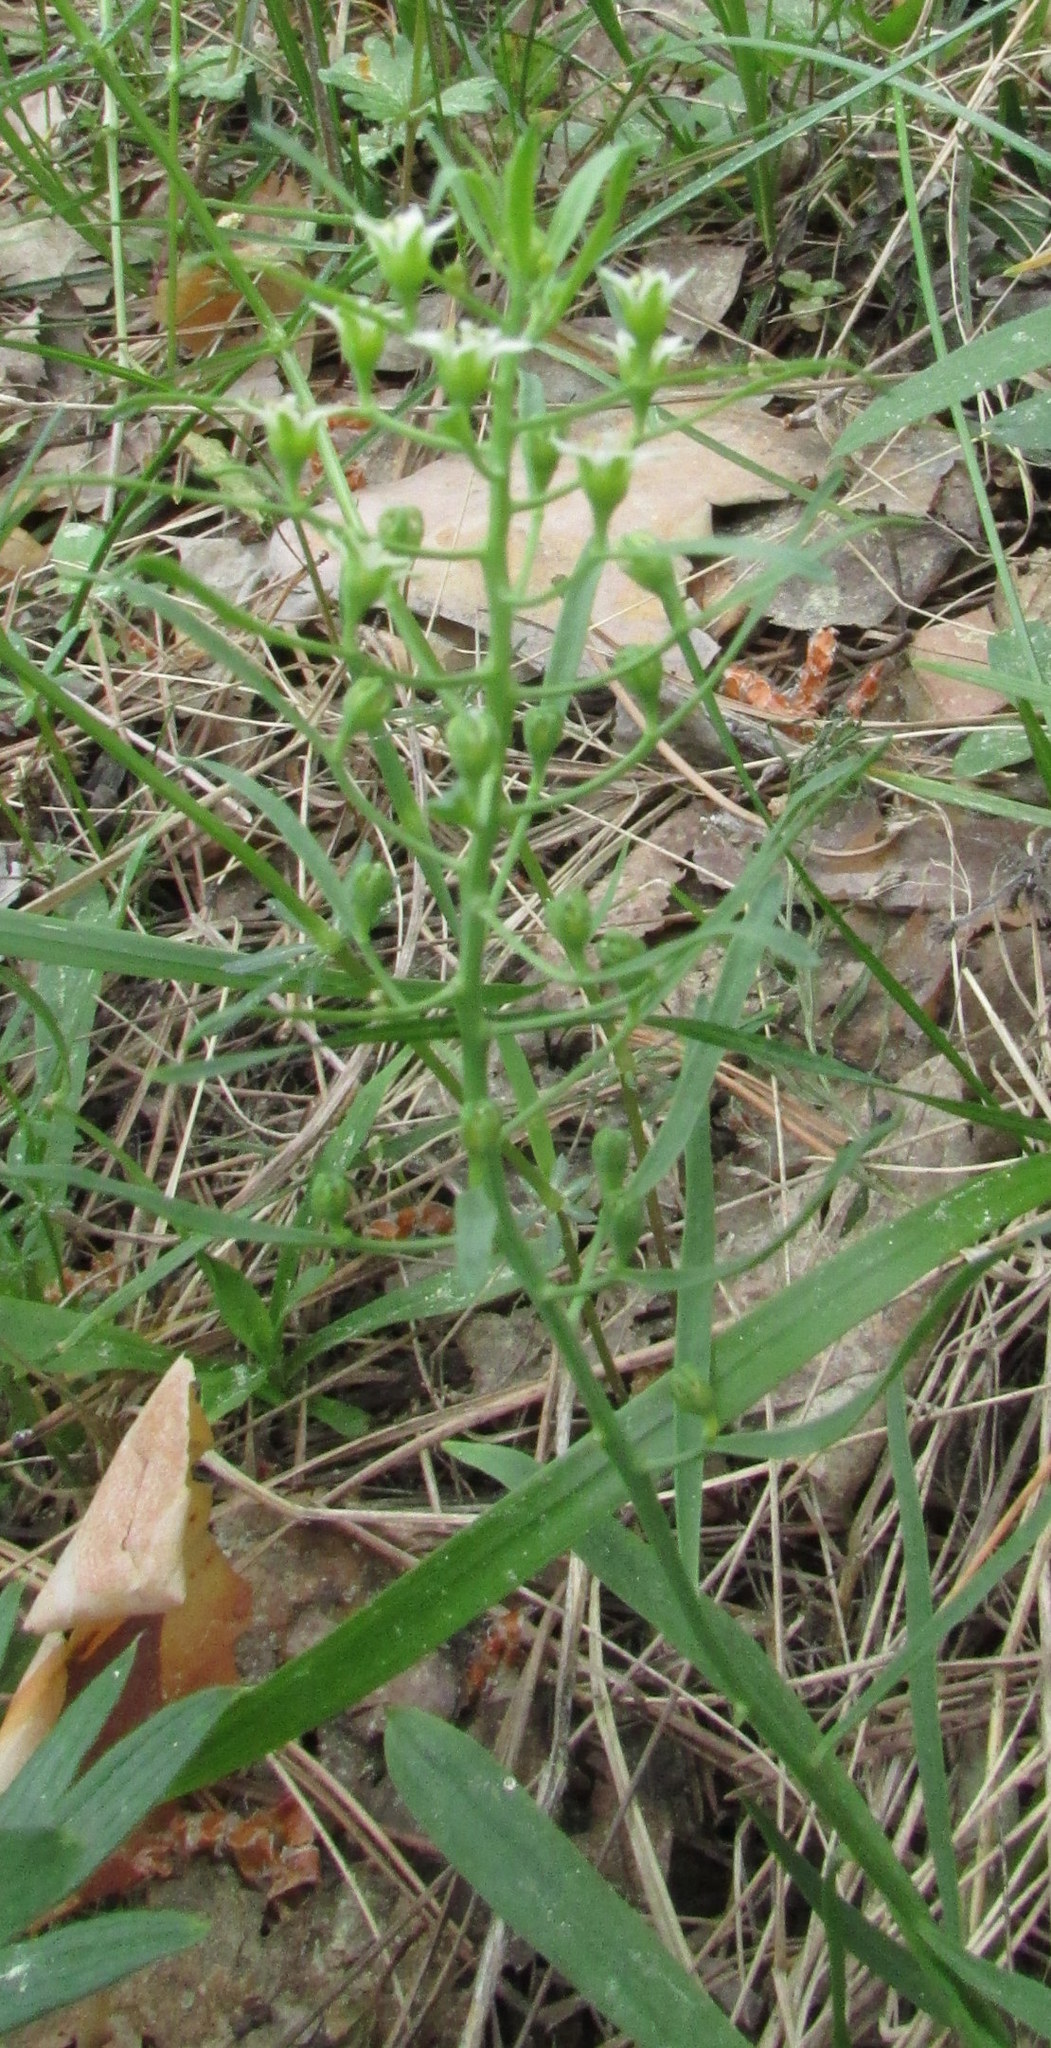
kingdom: Plantae
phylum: Tracheophyta
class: Magnoliopsida
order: Santalales
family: Thesiaceae
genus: Thesium
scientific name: Thesium ebracteatum
